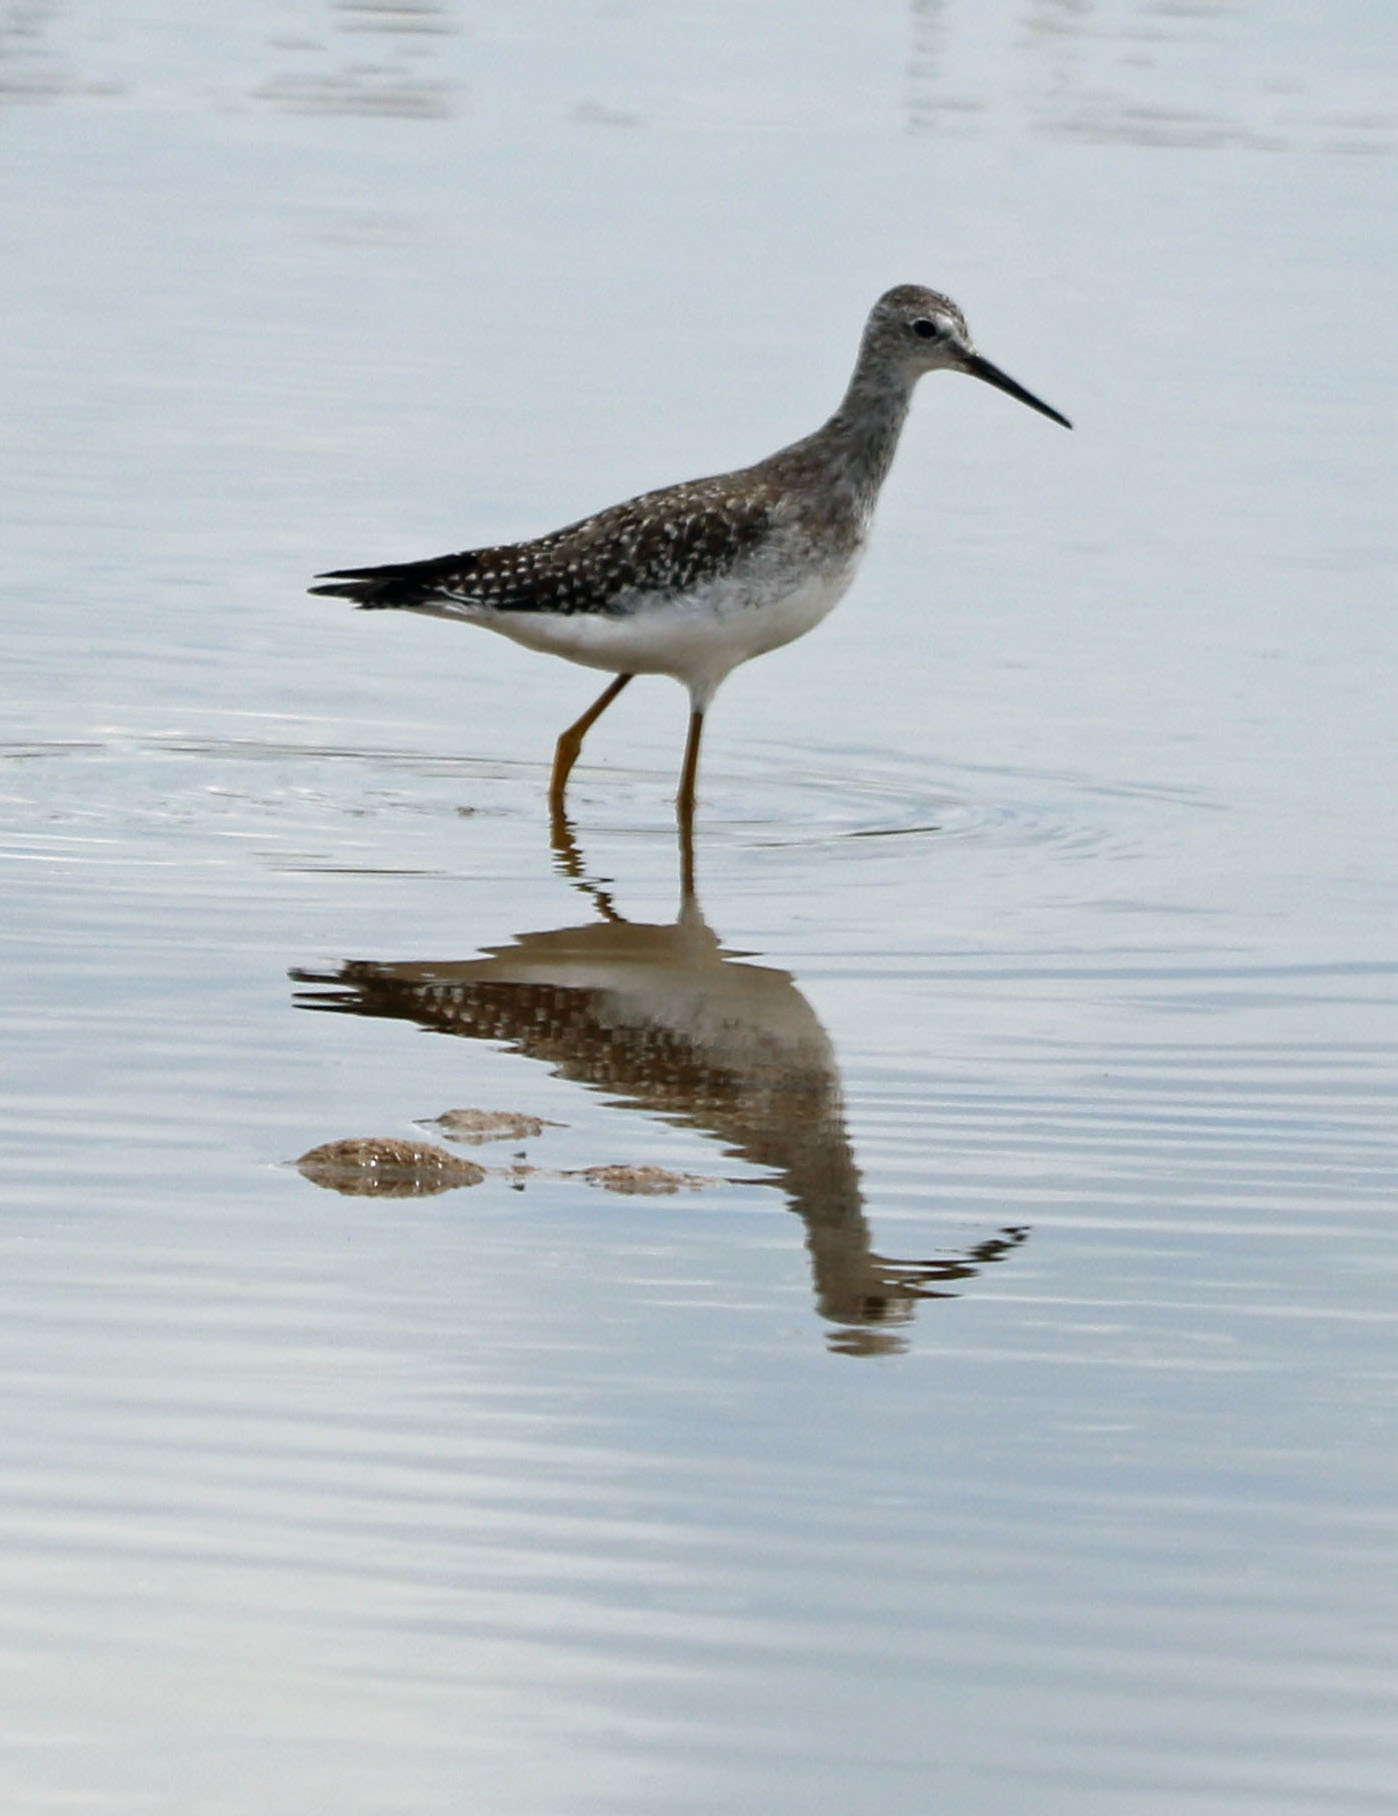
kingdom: Animalia
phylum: Chordata
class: Aves
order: Charadriiformes
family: Scolopacidae
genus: Tringa
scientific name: Tringa flavipes
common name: Lesser yellowlegs
